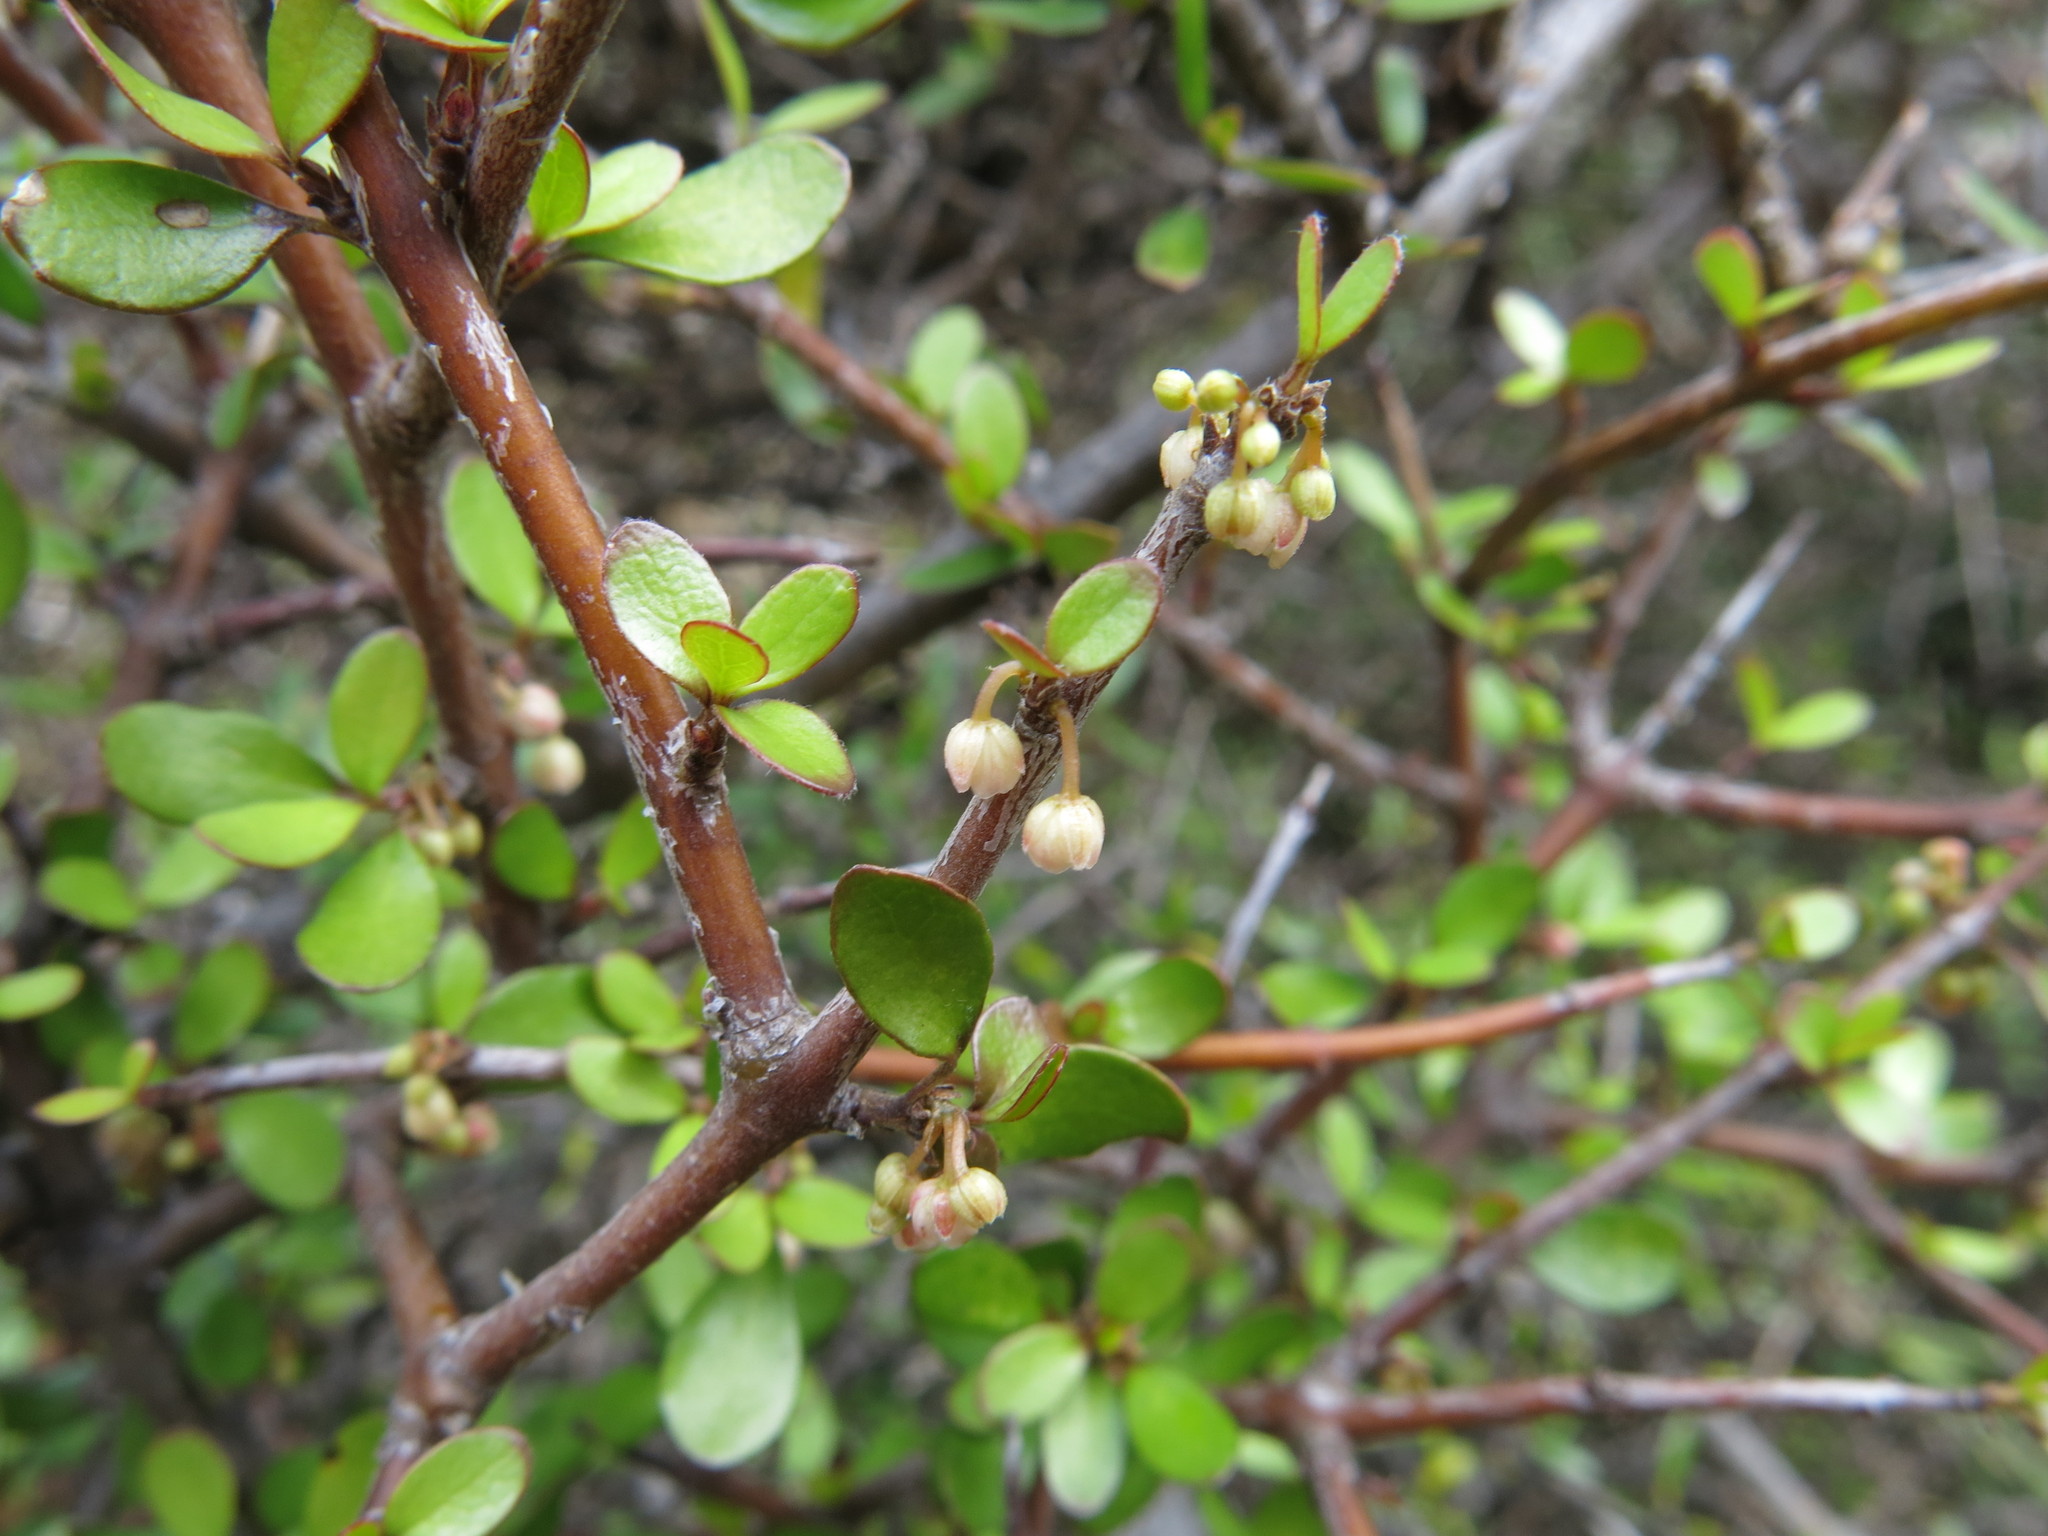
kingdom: Plantae
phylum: Tracheophyta
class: Magnoliopsida
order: Oxalidales
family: Elaeocarpaceae
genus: Aristotelia
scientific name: Aristotelia fruticosa
